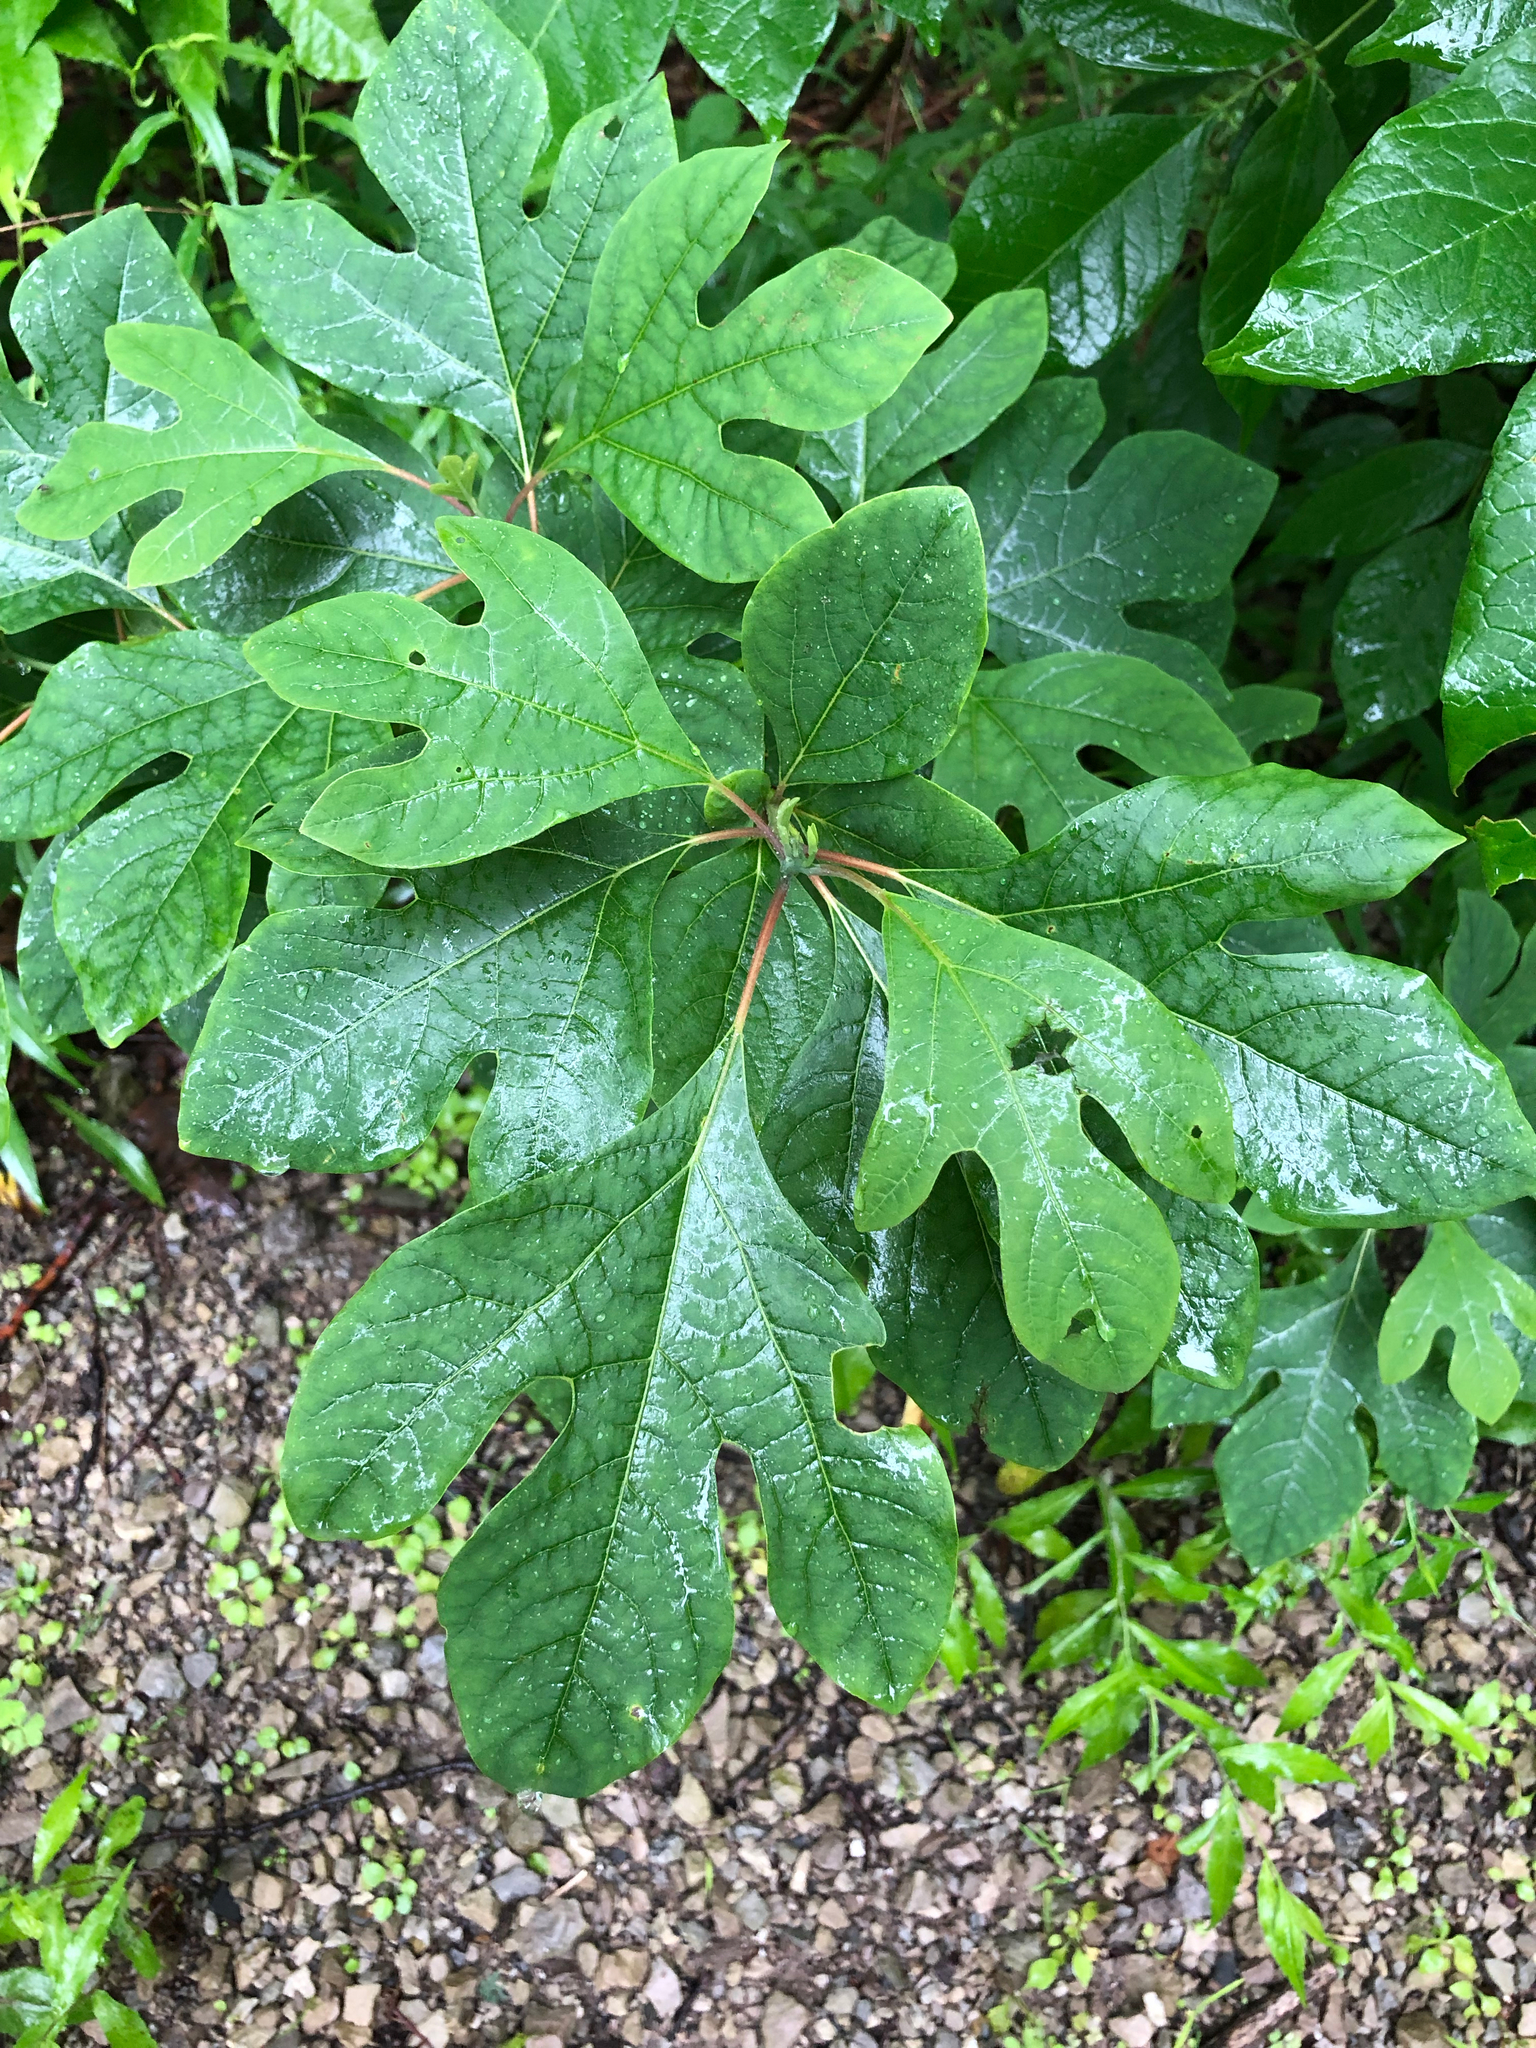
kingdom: Plantae
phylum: Tracheophyta
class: Magnoliopsida
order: Laurales
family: Lauraceae
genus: Sassafras
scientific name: Sassafras albidum
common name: Sassafras
